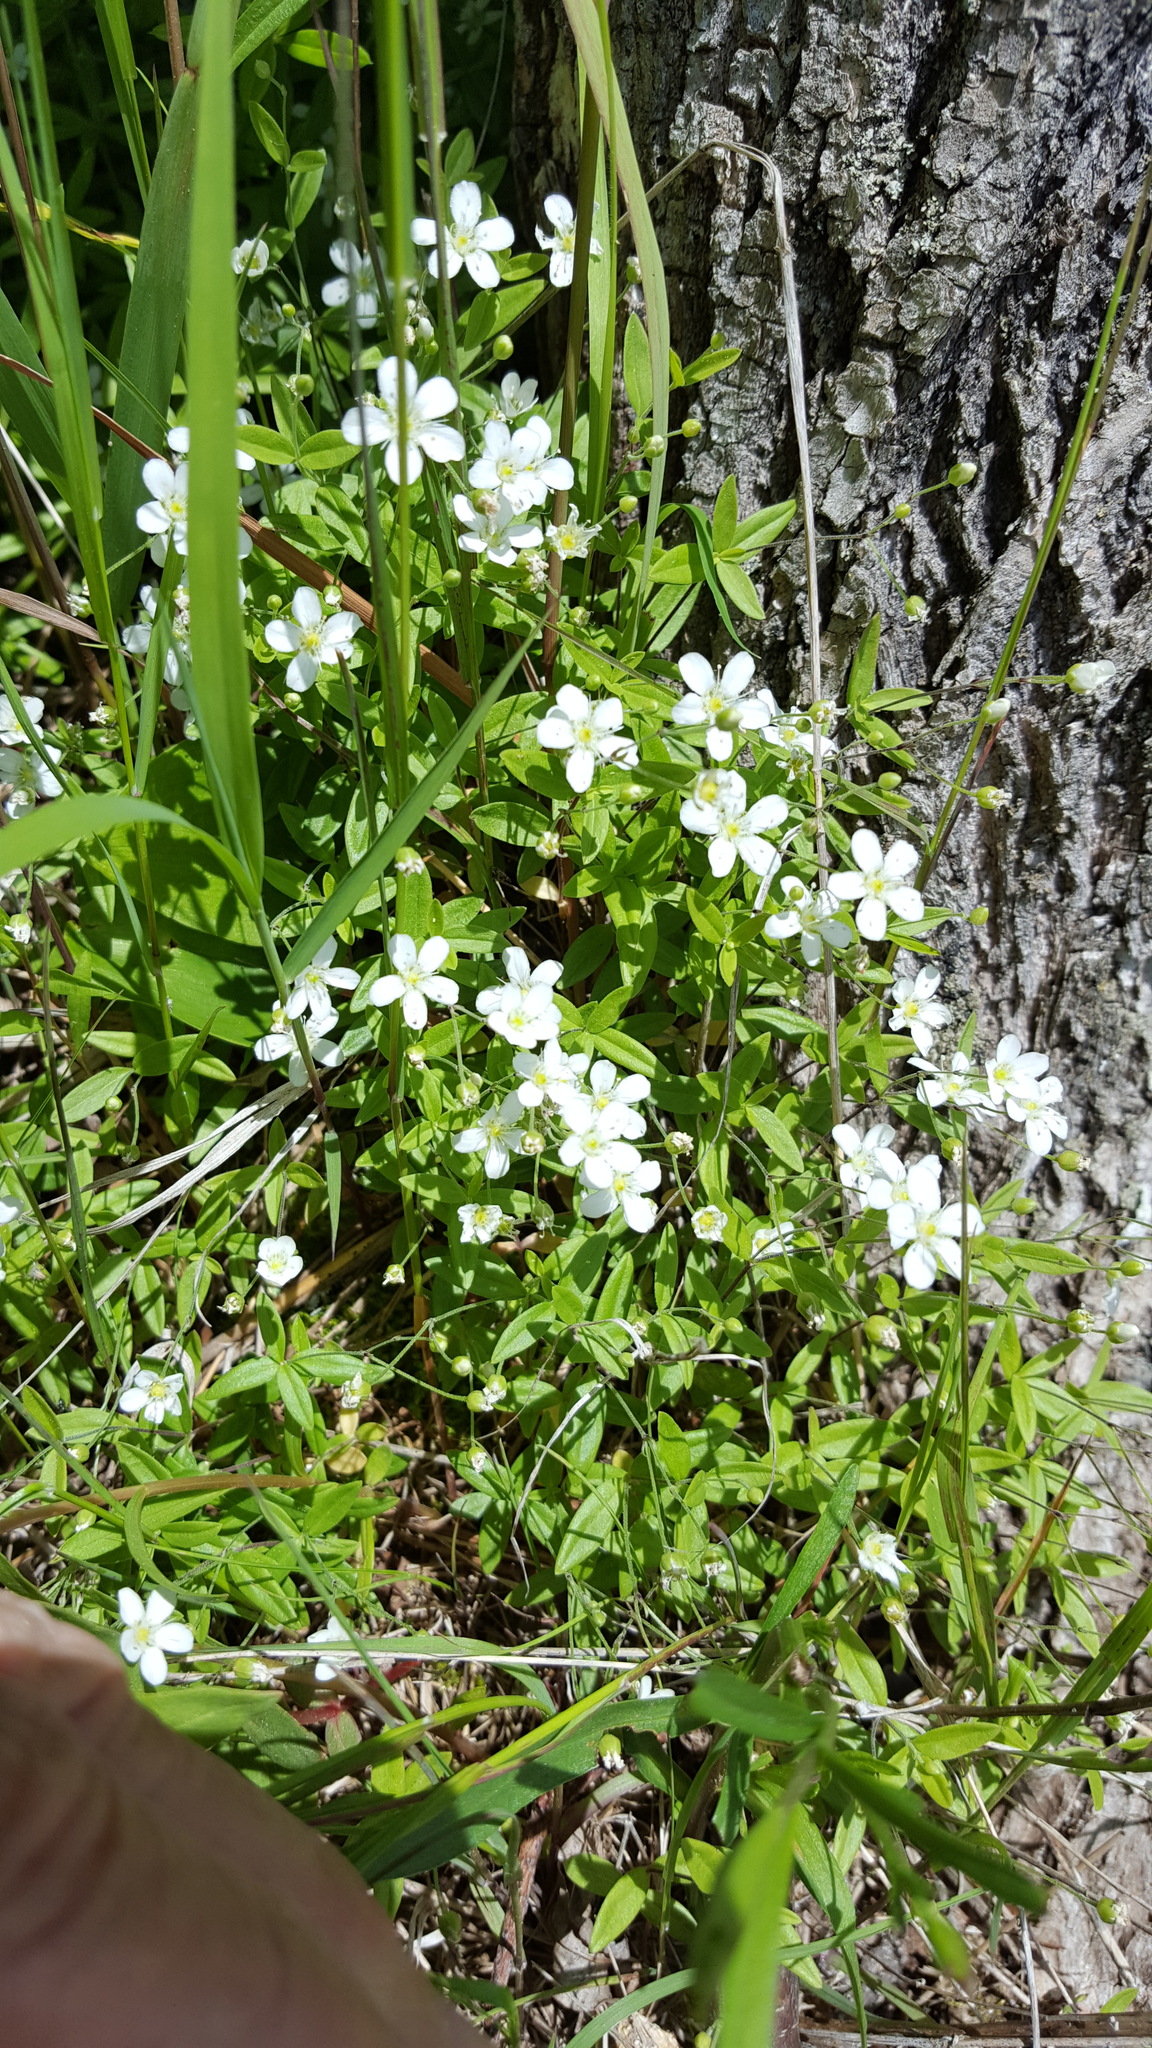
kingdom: Plantae
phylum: Tracheophyta
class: Magnoliopsida
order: Caryophyllales
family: Caryophyllaceae
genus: Moehringia
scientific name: Moehringia lateriflora
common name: Blunt-leaved sandwort
